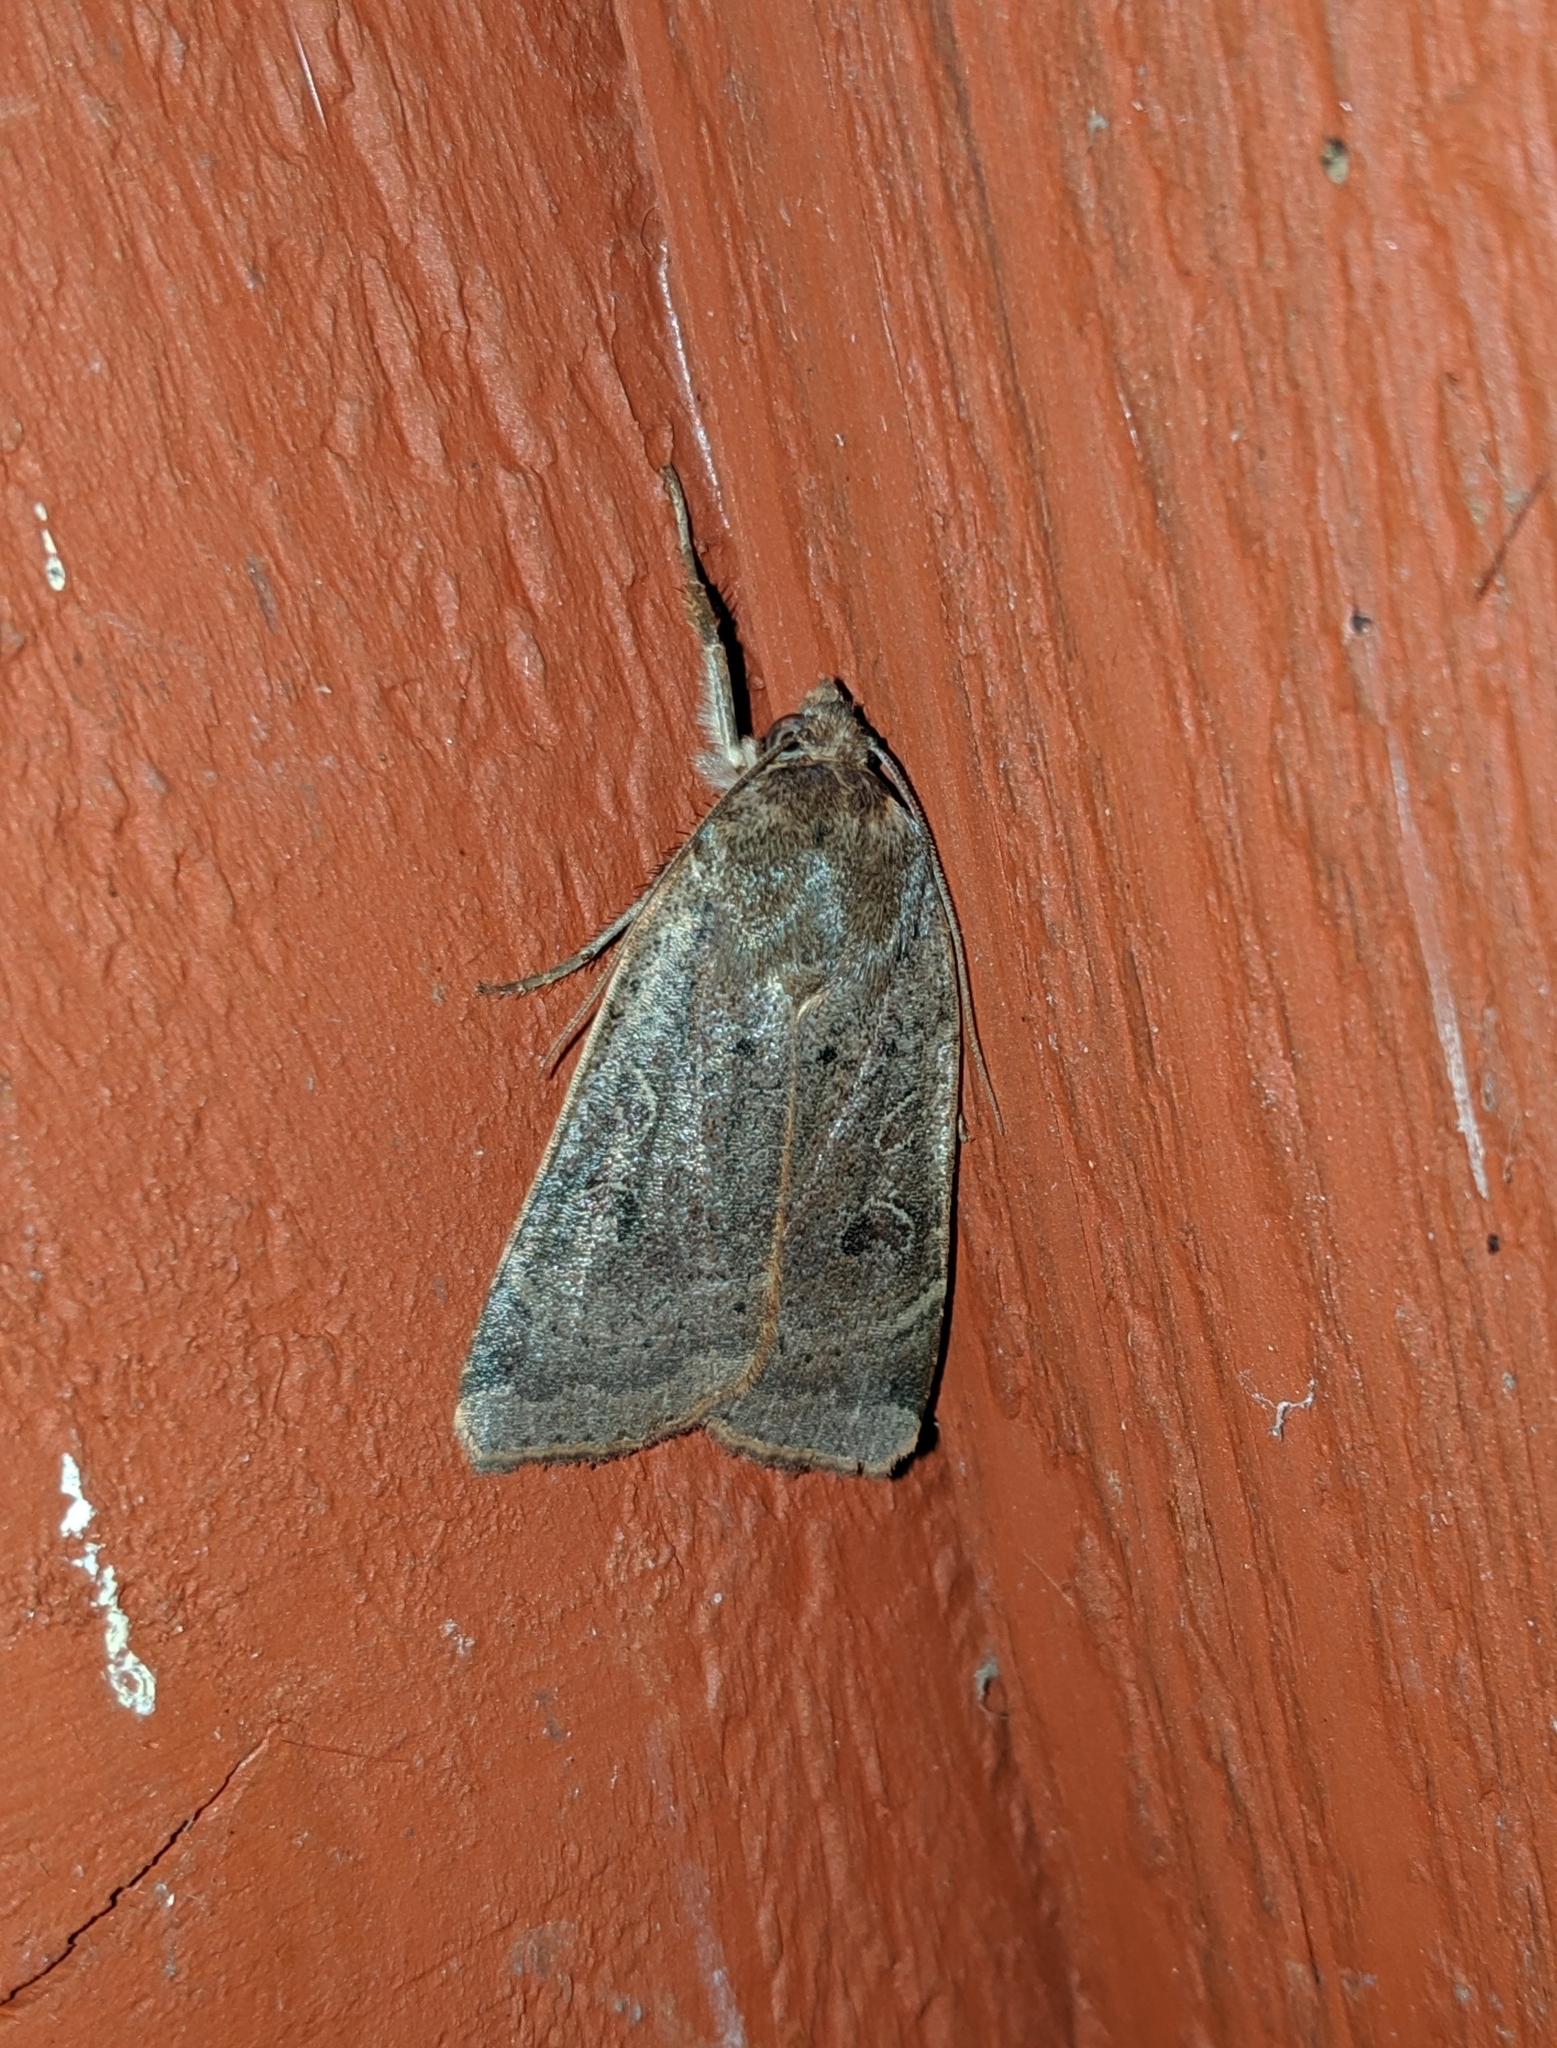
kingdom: Animalia
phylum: Arthropoda
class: Insecta
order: Lepidoptera
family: Noctuidae
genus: Noctua
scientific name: Noctua comes
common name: Lesser yellow underwing
